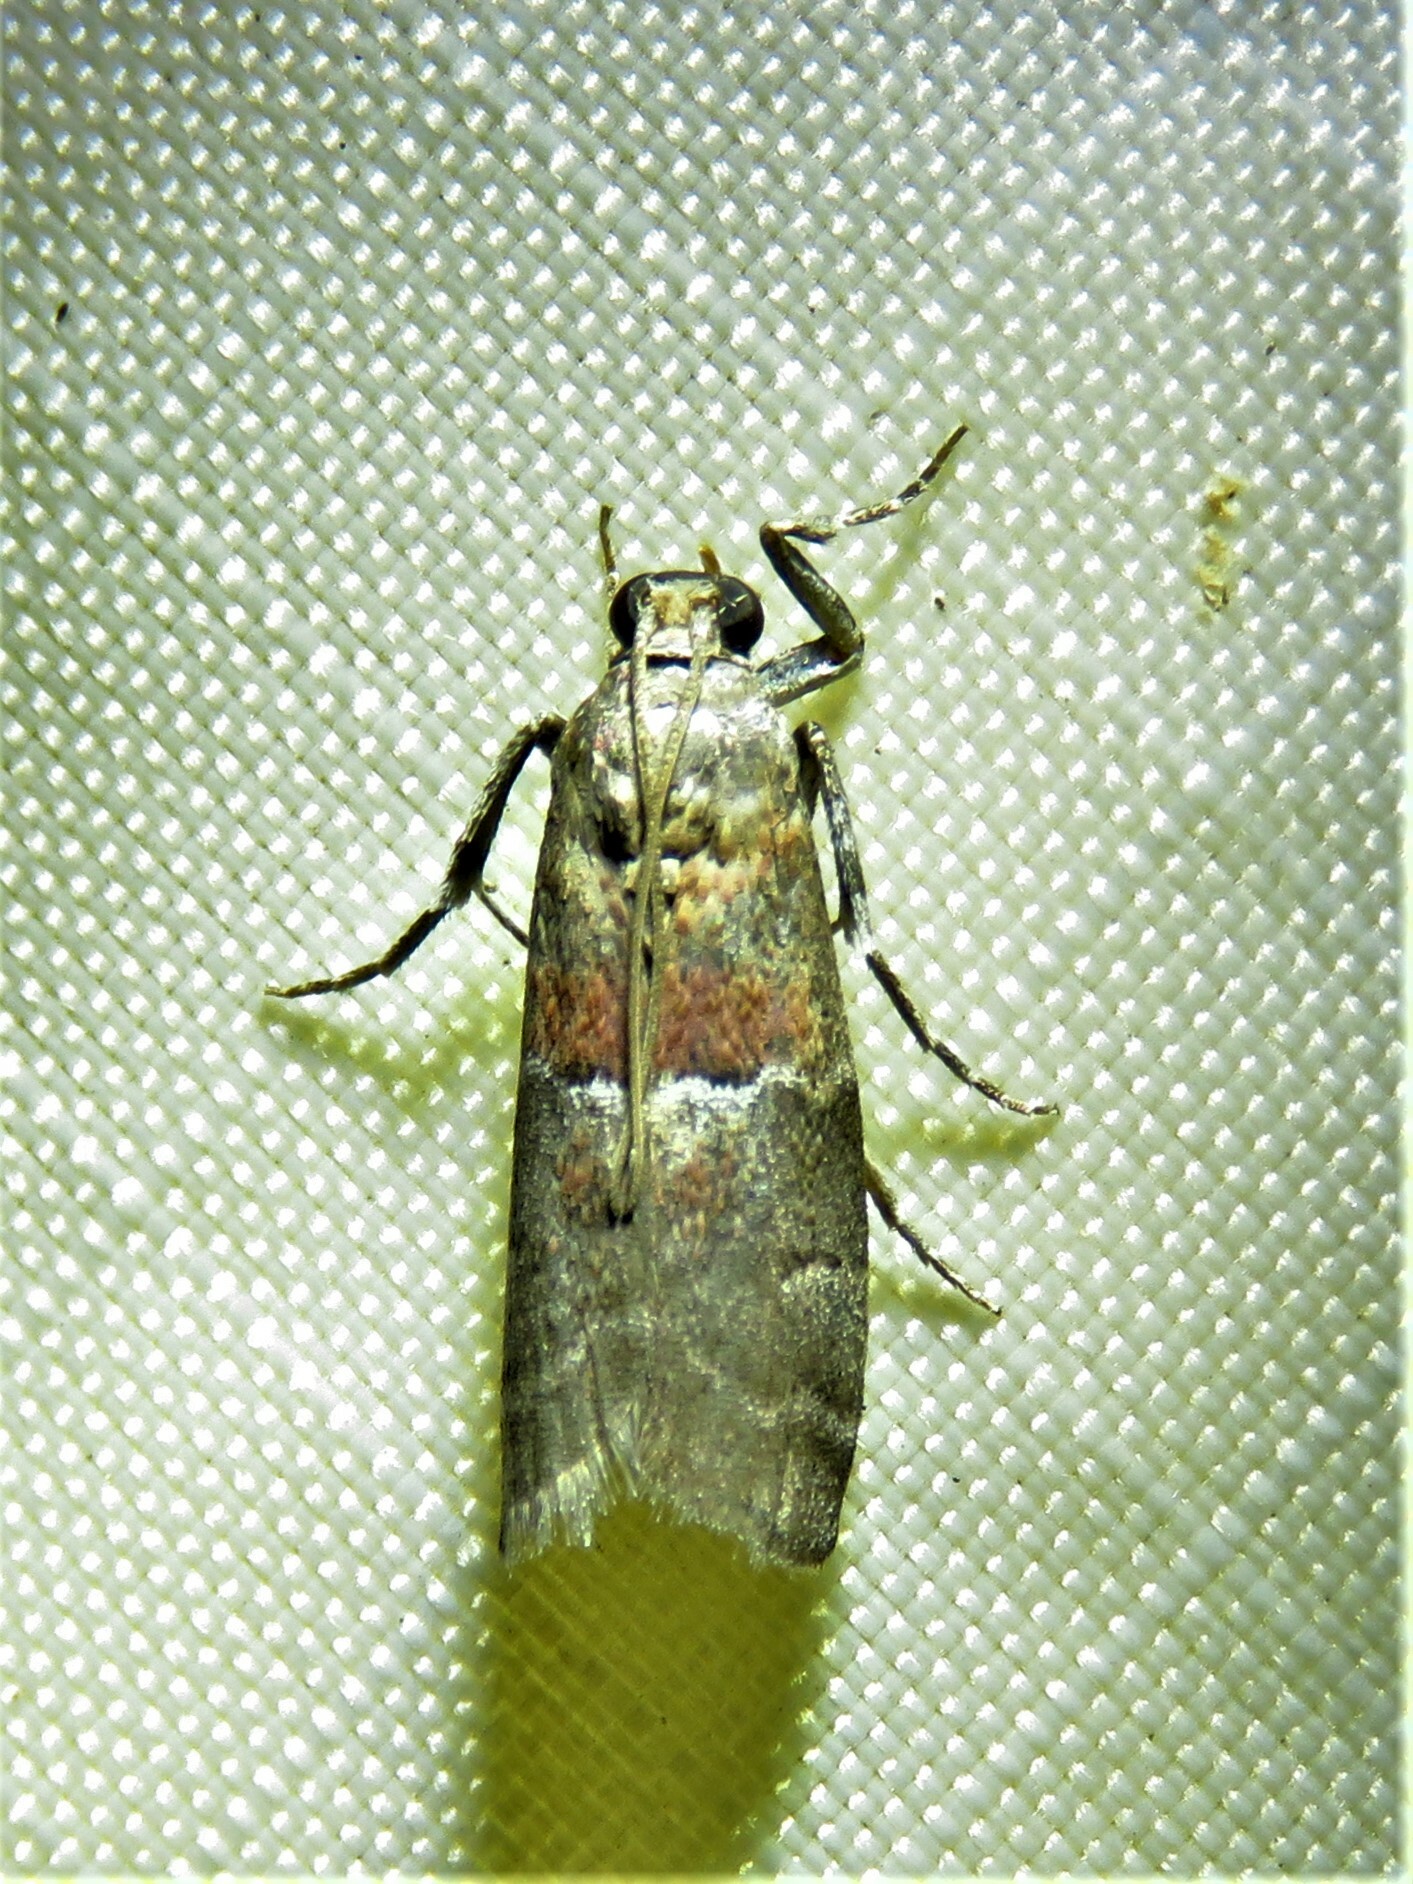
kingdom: Animalia
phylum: Arthropoda
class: Insecta
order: Lepidoptera
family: Pyralidae
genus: Salebriaria
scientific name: Salebriaria pumilella
